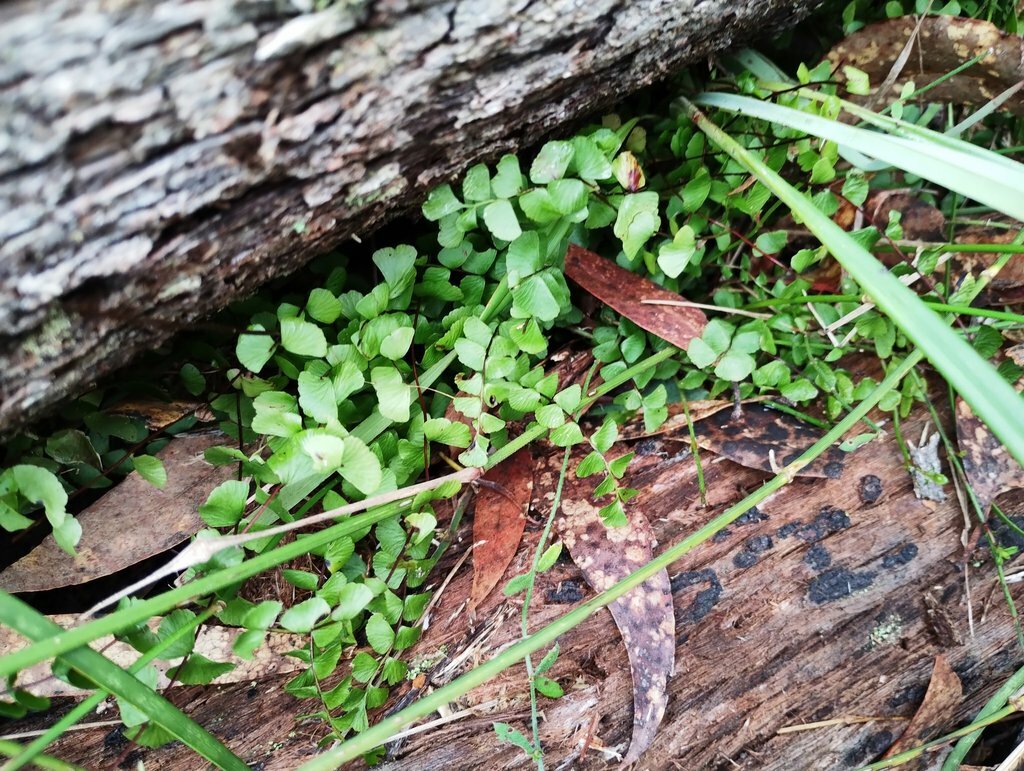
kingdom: Plantae
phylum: Tracheophyta
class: Polypodiopsida
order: Polypodiales
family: Aspleniaceae
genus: Asplenium
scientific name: Asplenium flabellifolium
